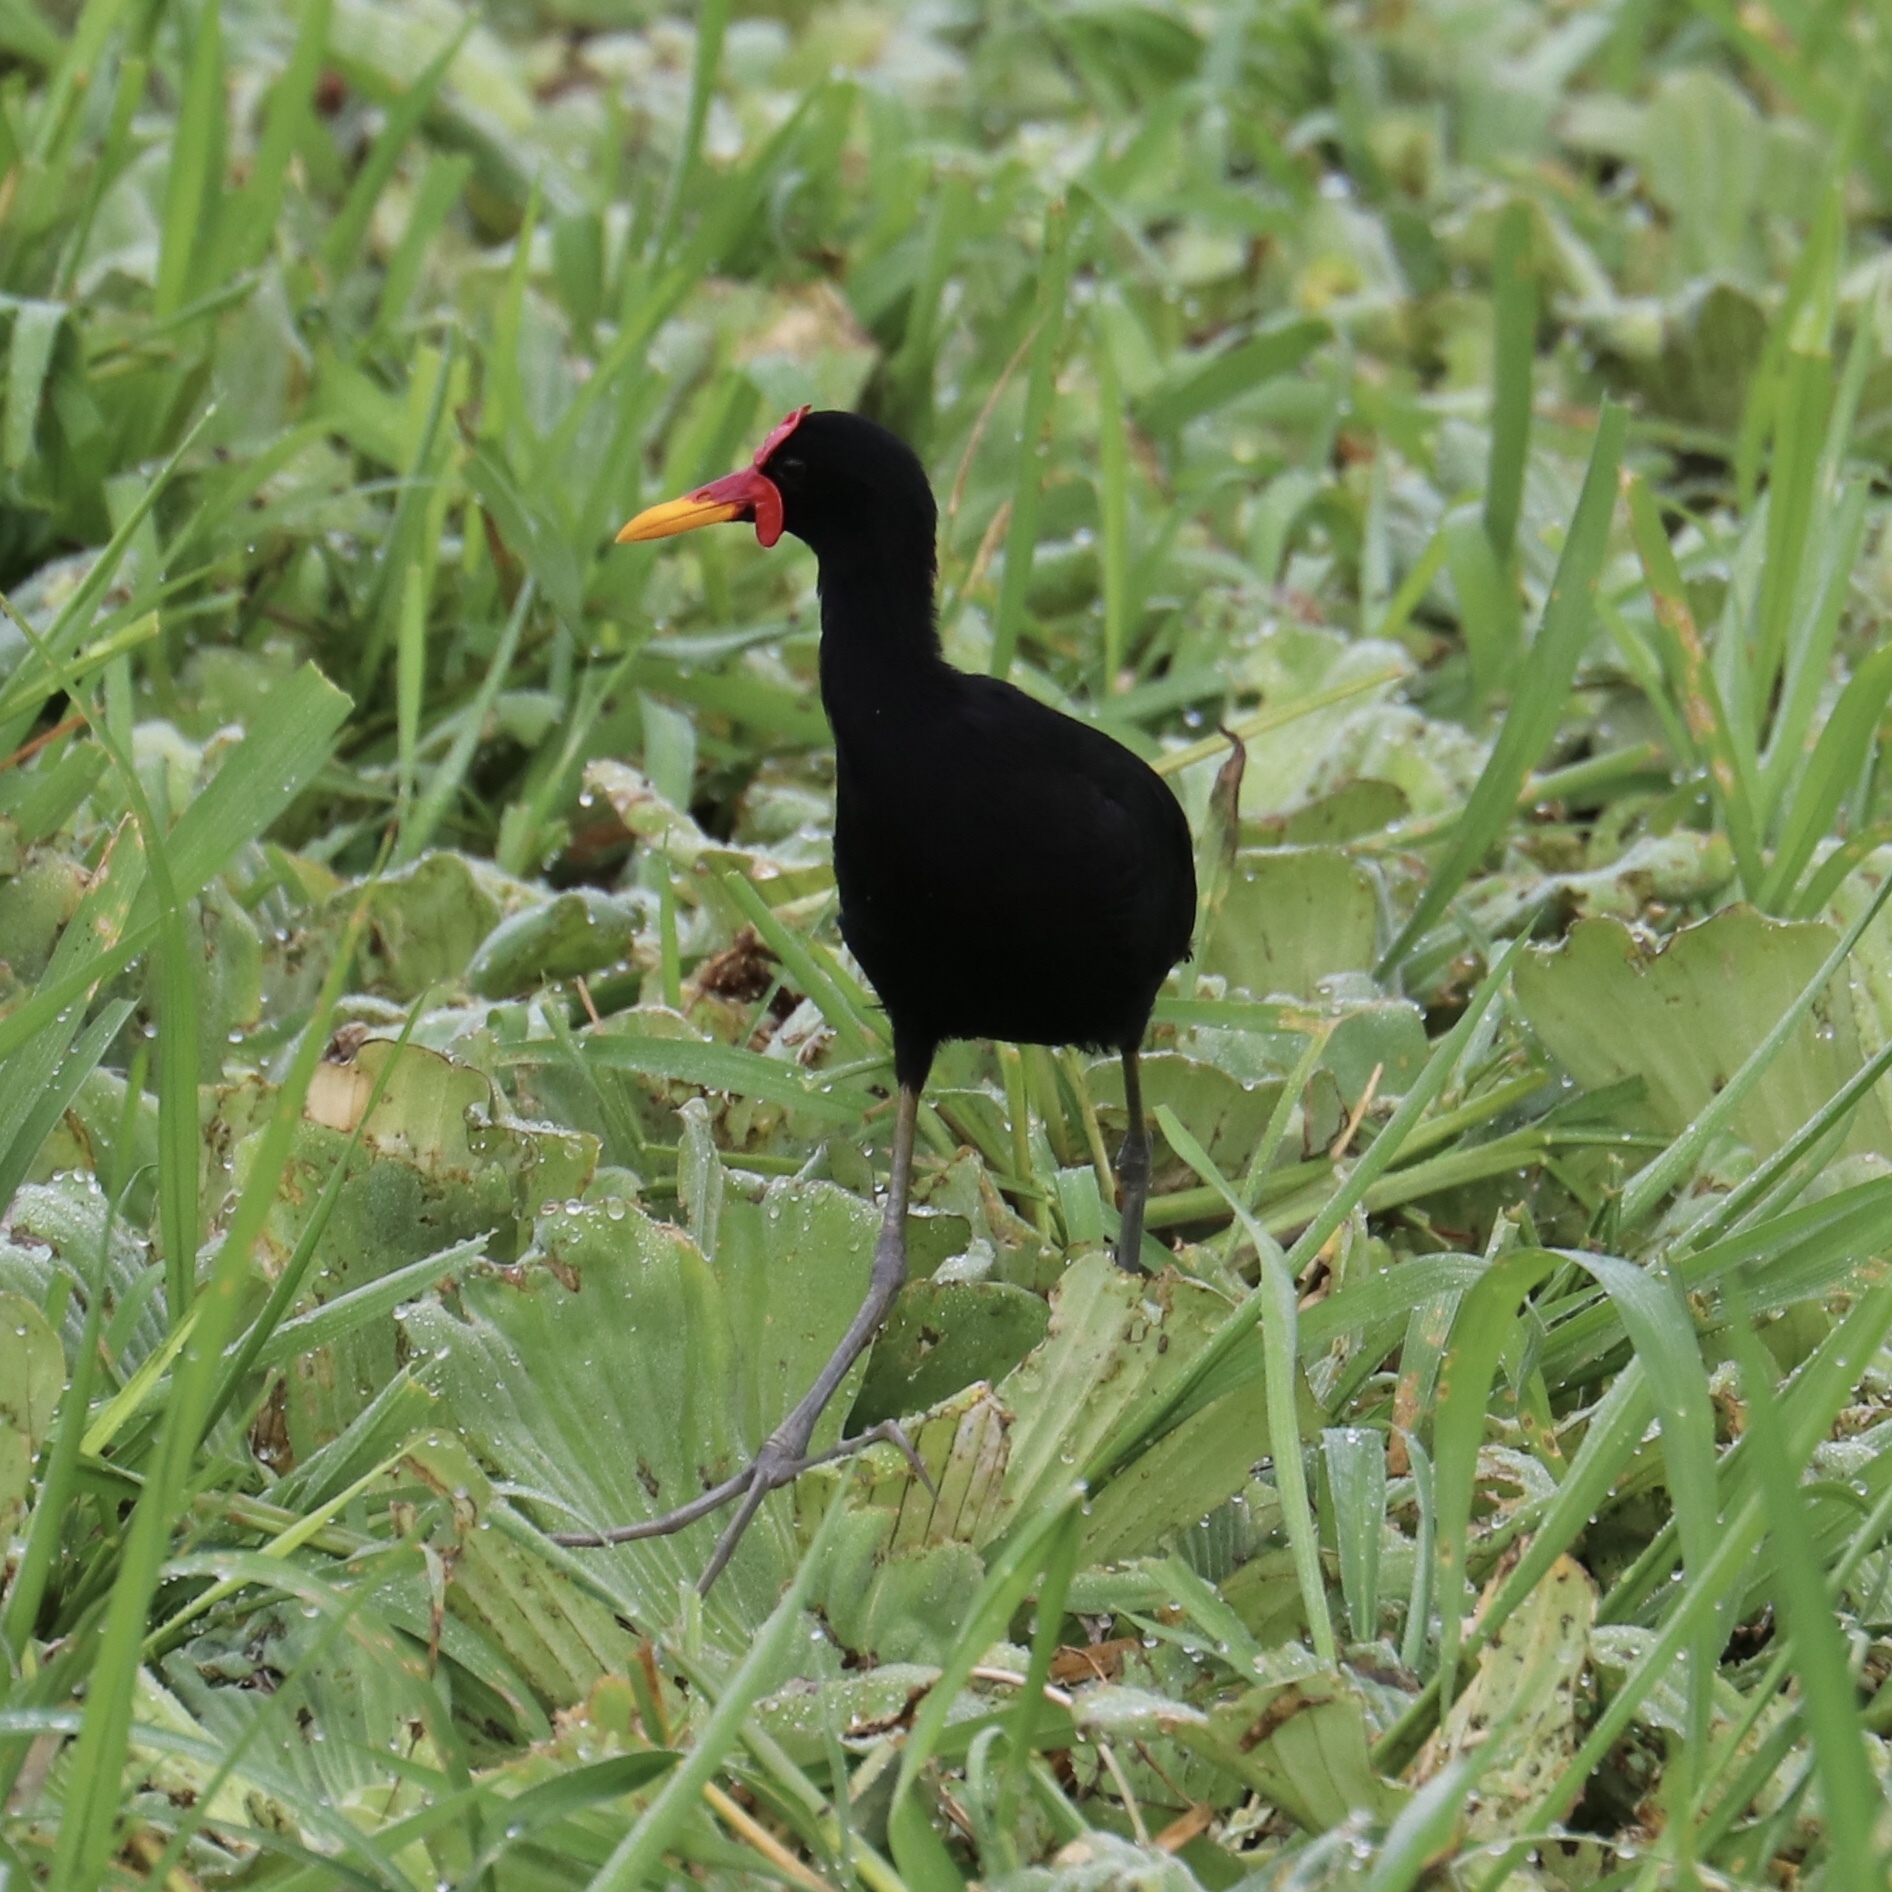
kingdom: Animalia
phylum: Chordata
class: Aves
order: Charadriiformes
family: Jacanidae
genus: Jacana
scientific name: Jacana jacana
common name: Wattled jacana
